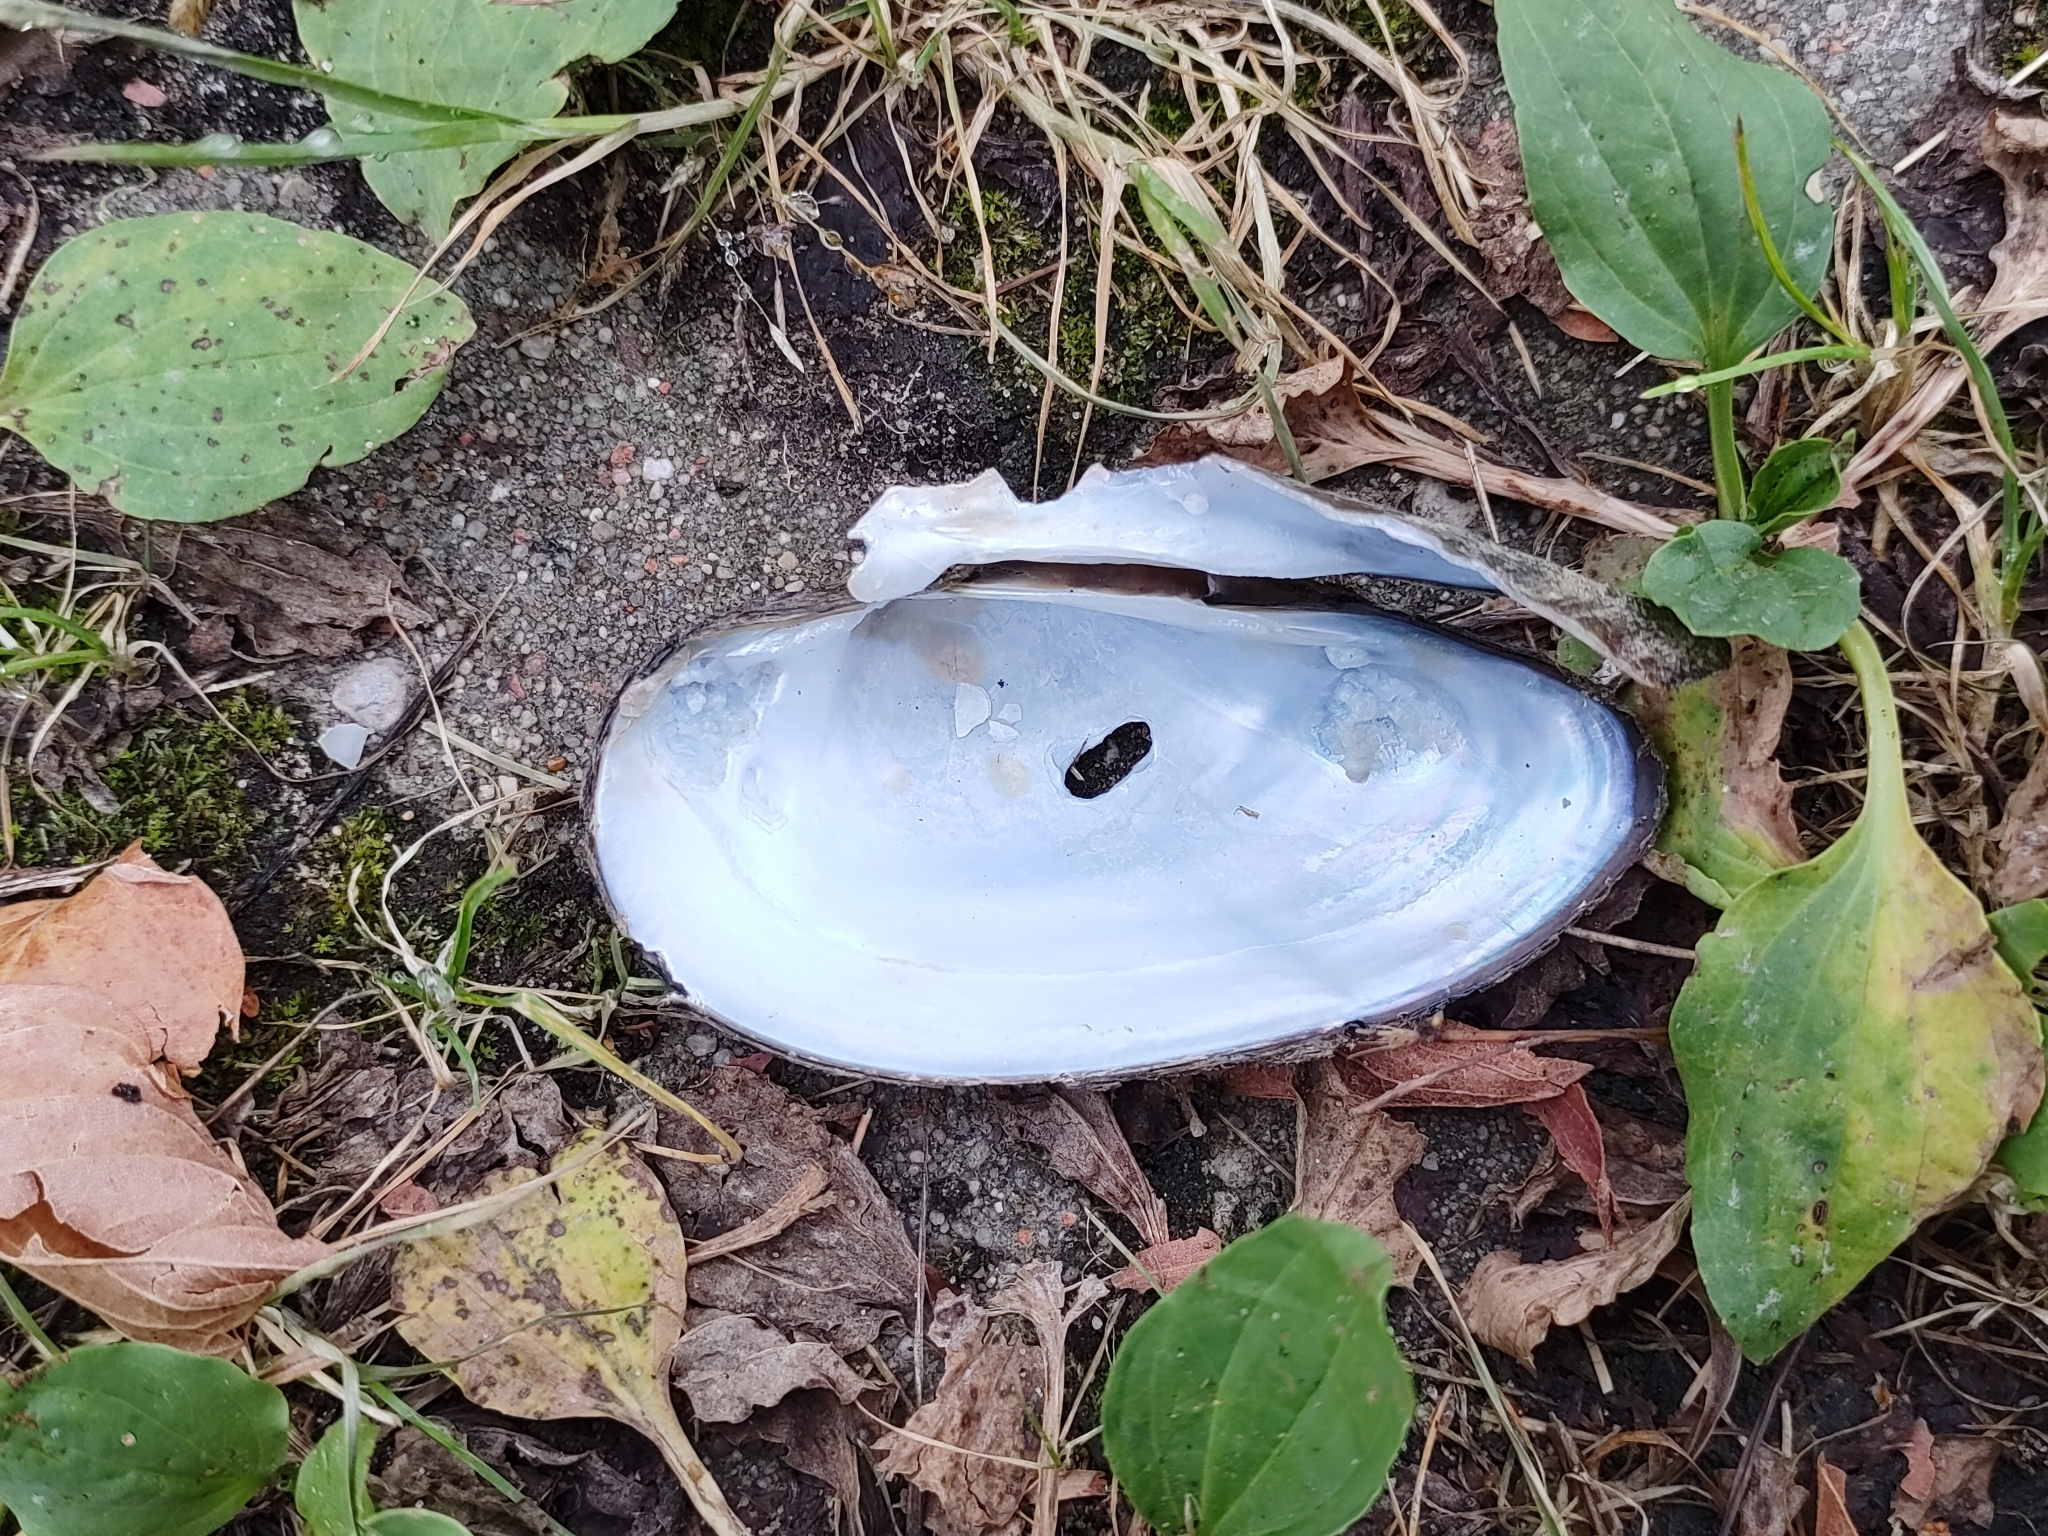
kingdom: Animalia
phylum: Mollusca
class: Bivalvia
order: Unionida
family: Unionidae
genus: Unio
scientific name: Unio tumidus
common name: Swollen river mussel
